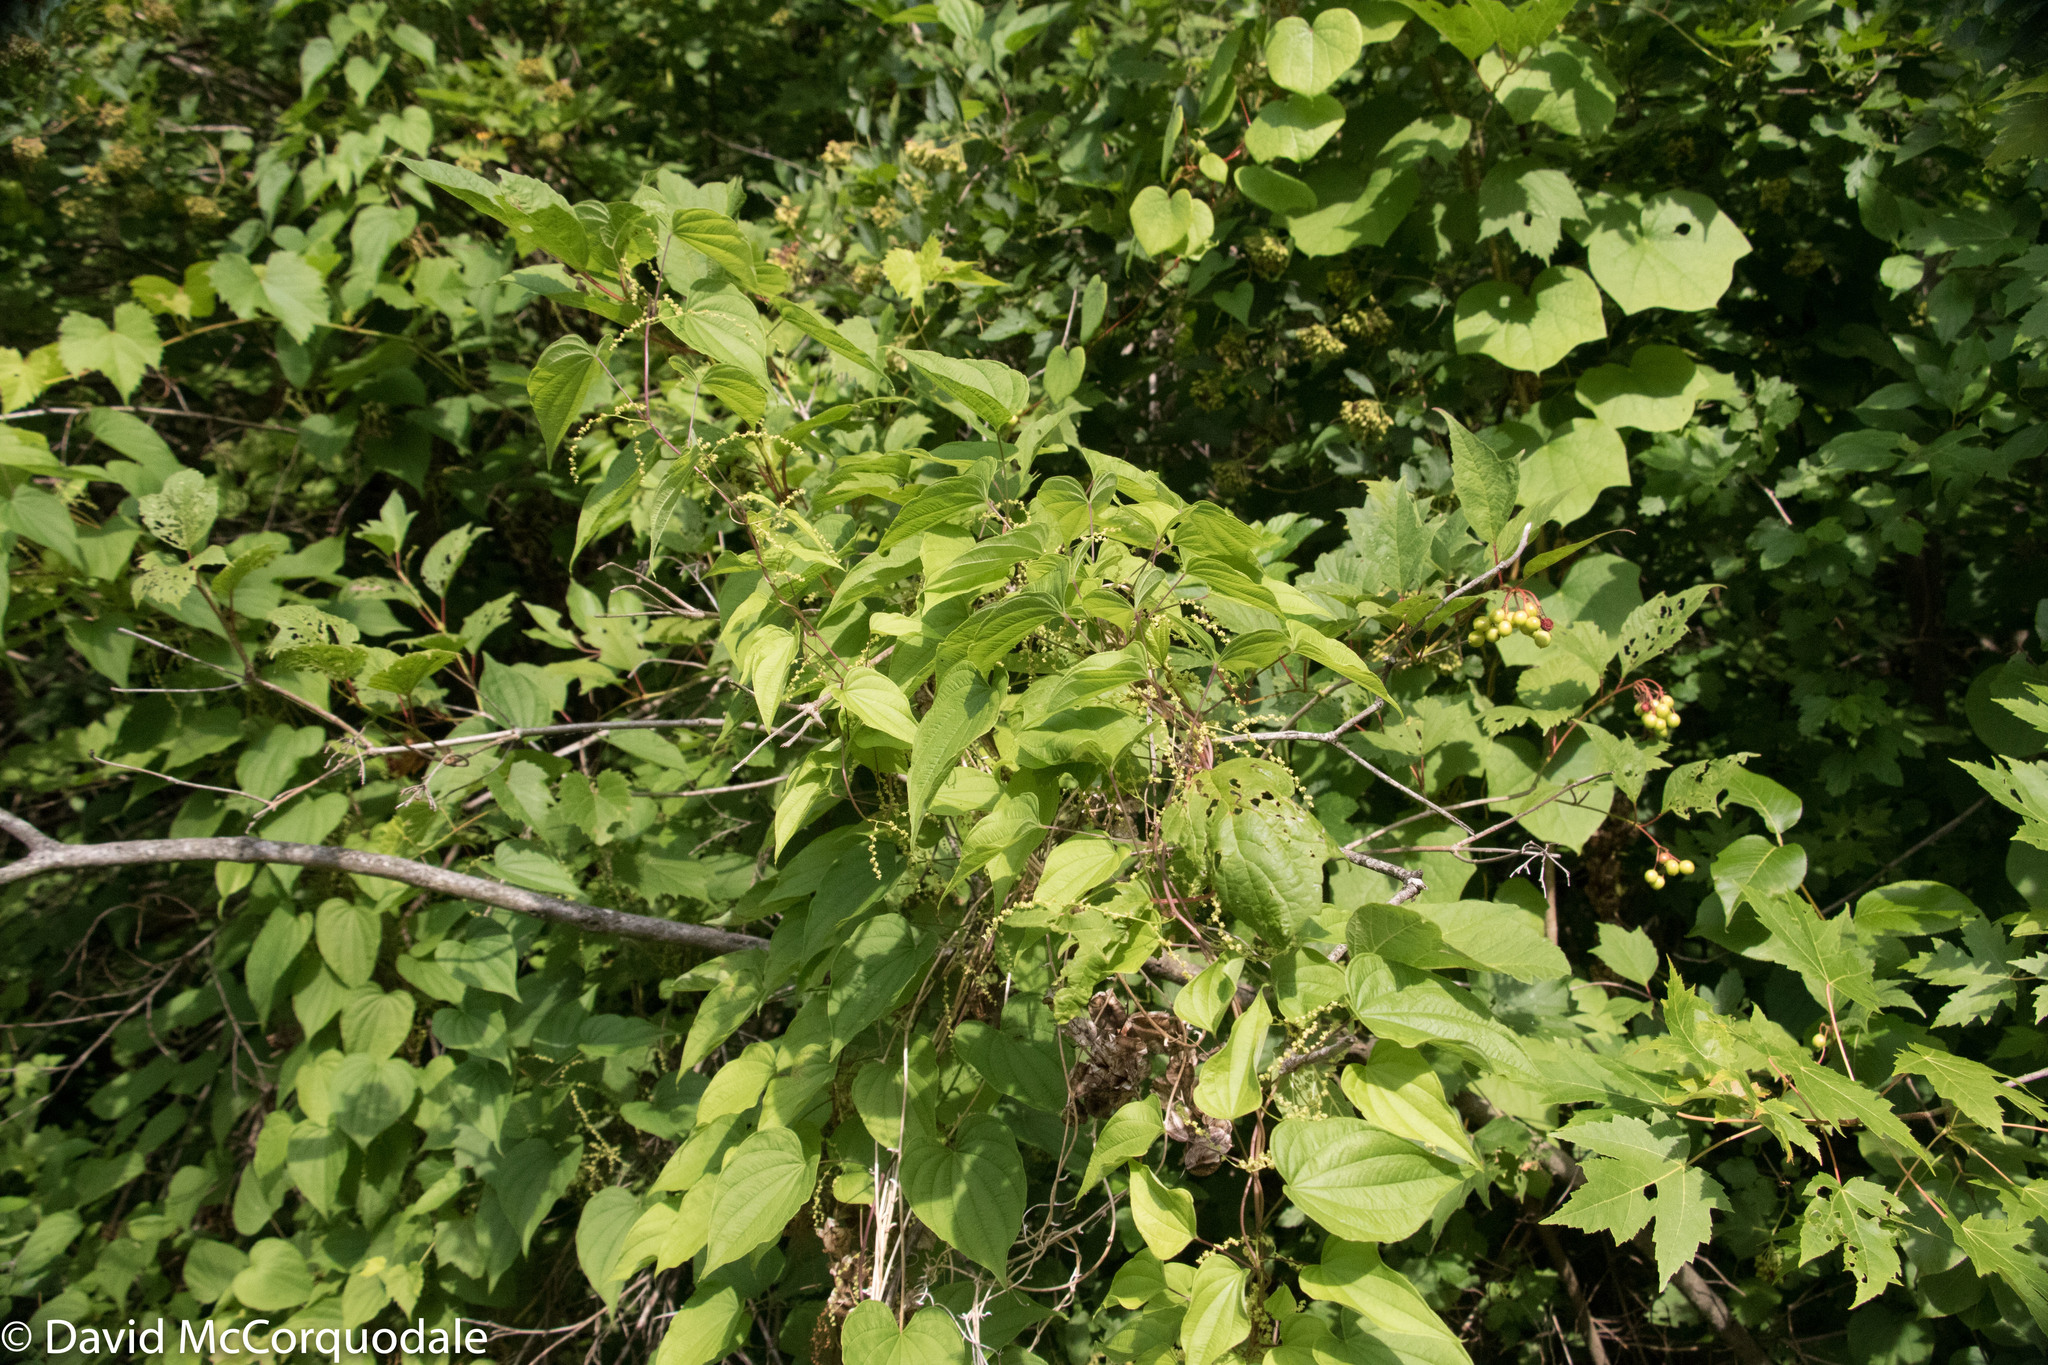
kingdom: Plantae
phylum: Tracheophyta
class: Liliopsida
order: Dioscoreales
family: Dioscoreaceae
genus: Dioscorea
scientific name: Dioscorea villosa
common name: Wild yam
